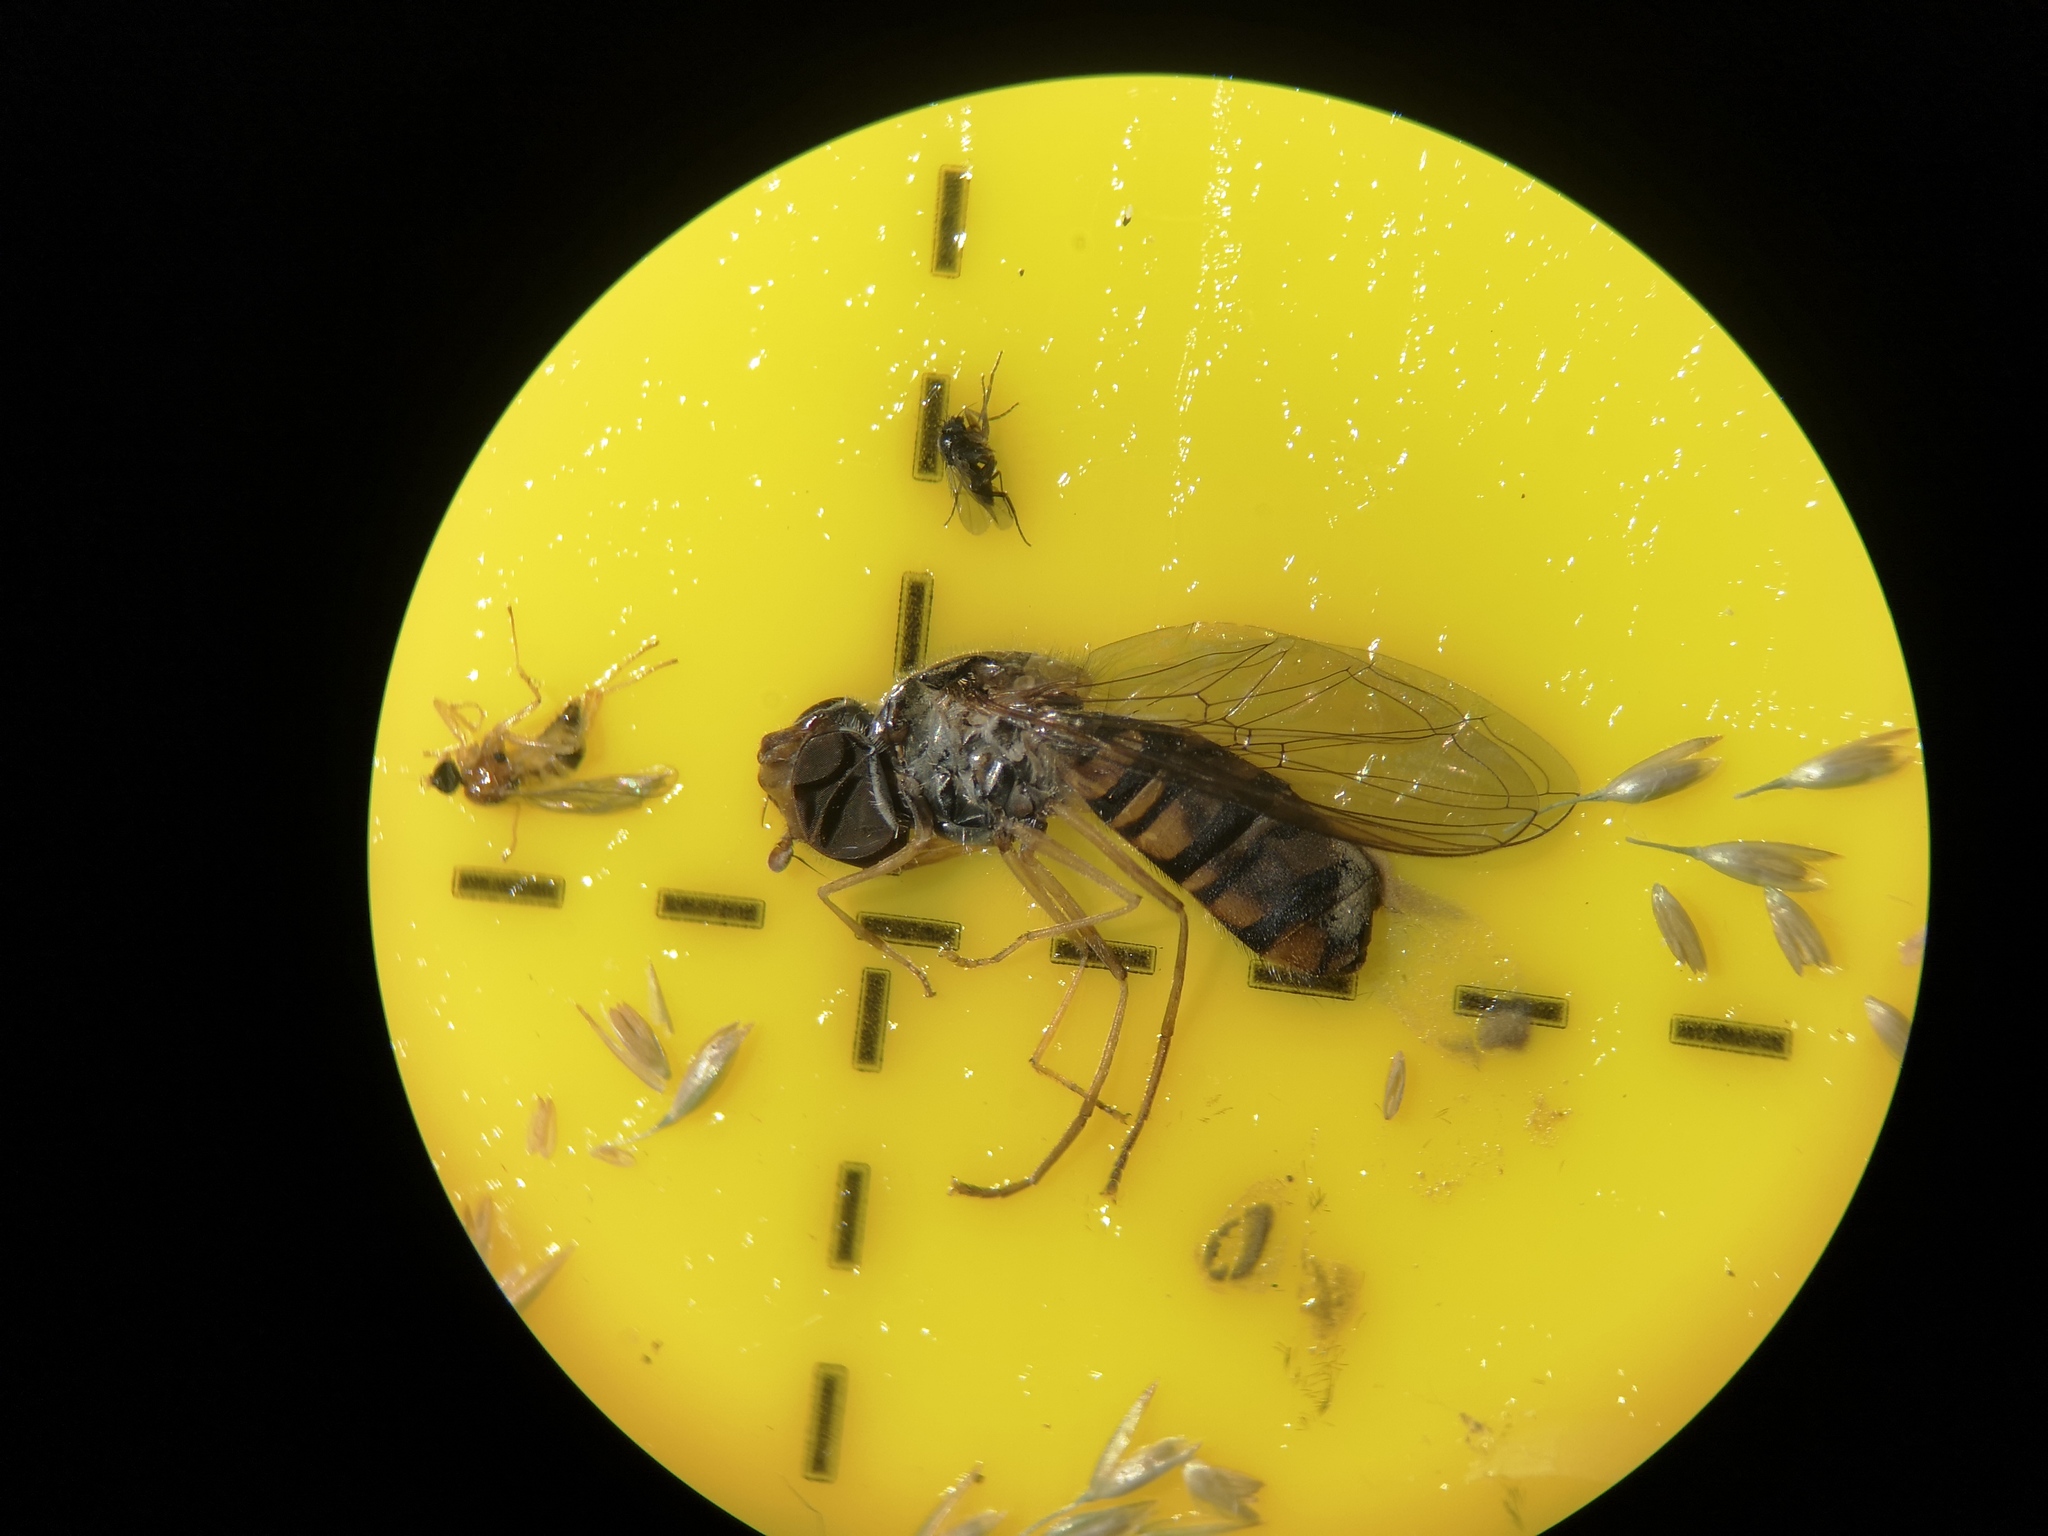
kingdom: Animalia
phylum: Arthropoda
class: Insecta
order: Diptera
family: Syrphidae
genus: Episyrphus
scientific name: Episyrphus balteatus
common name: Marmalade hoverfly
